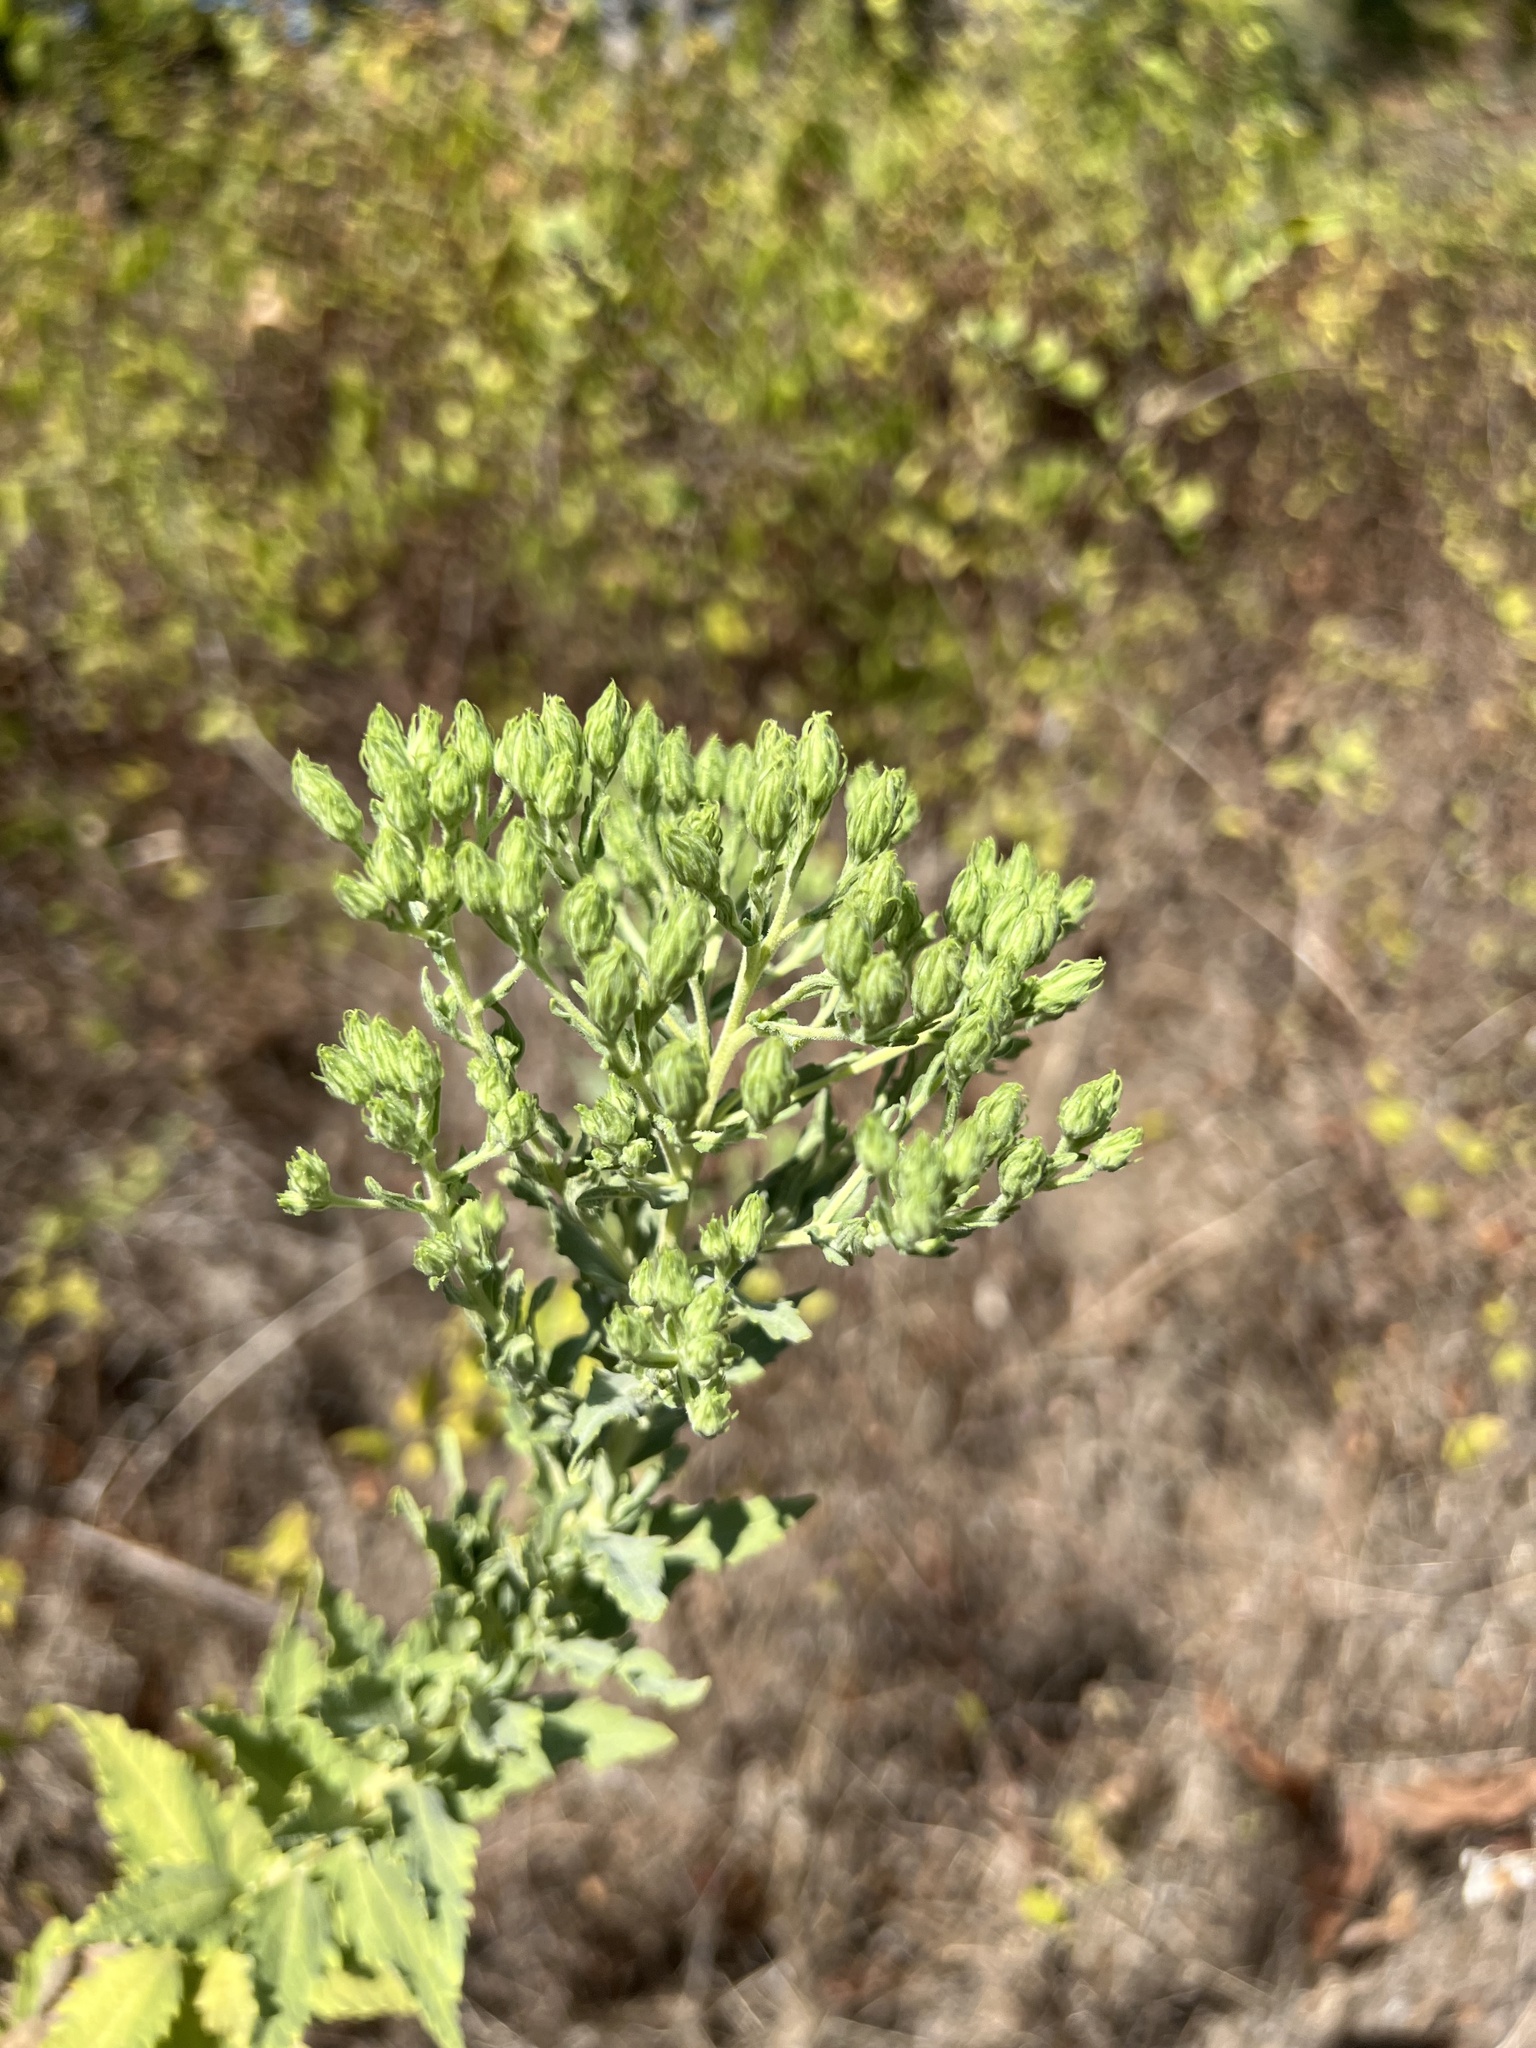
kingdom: Plantae
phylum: Tracheophyta
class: Magnoliopsida
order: Asterales
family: Asteraceae
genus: Brickellia
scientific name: Brickellia eupatorioides
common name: False boneset
